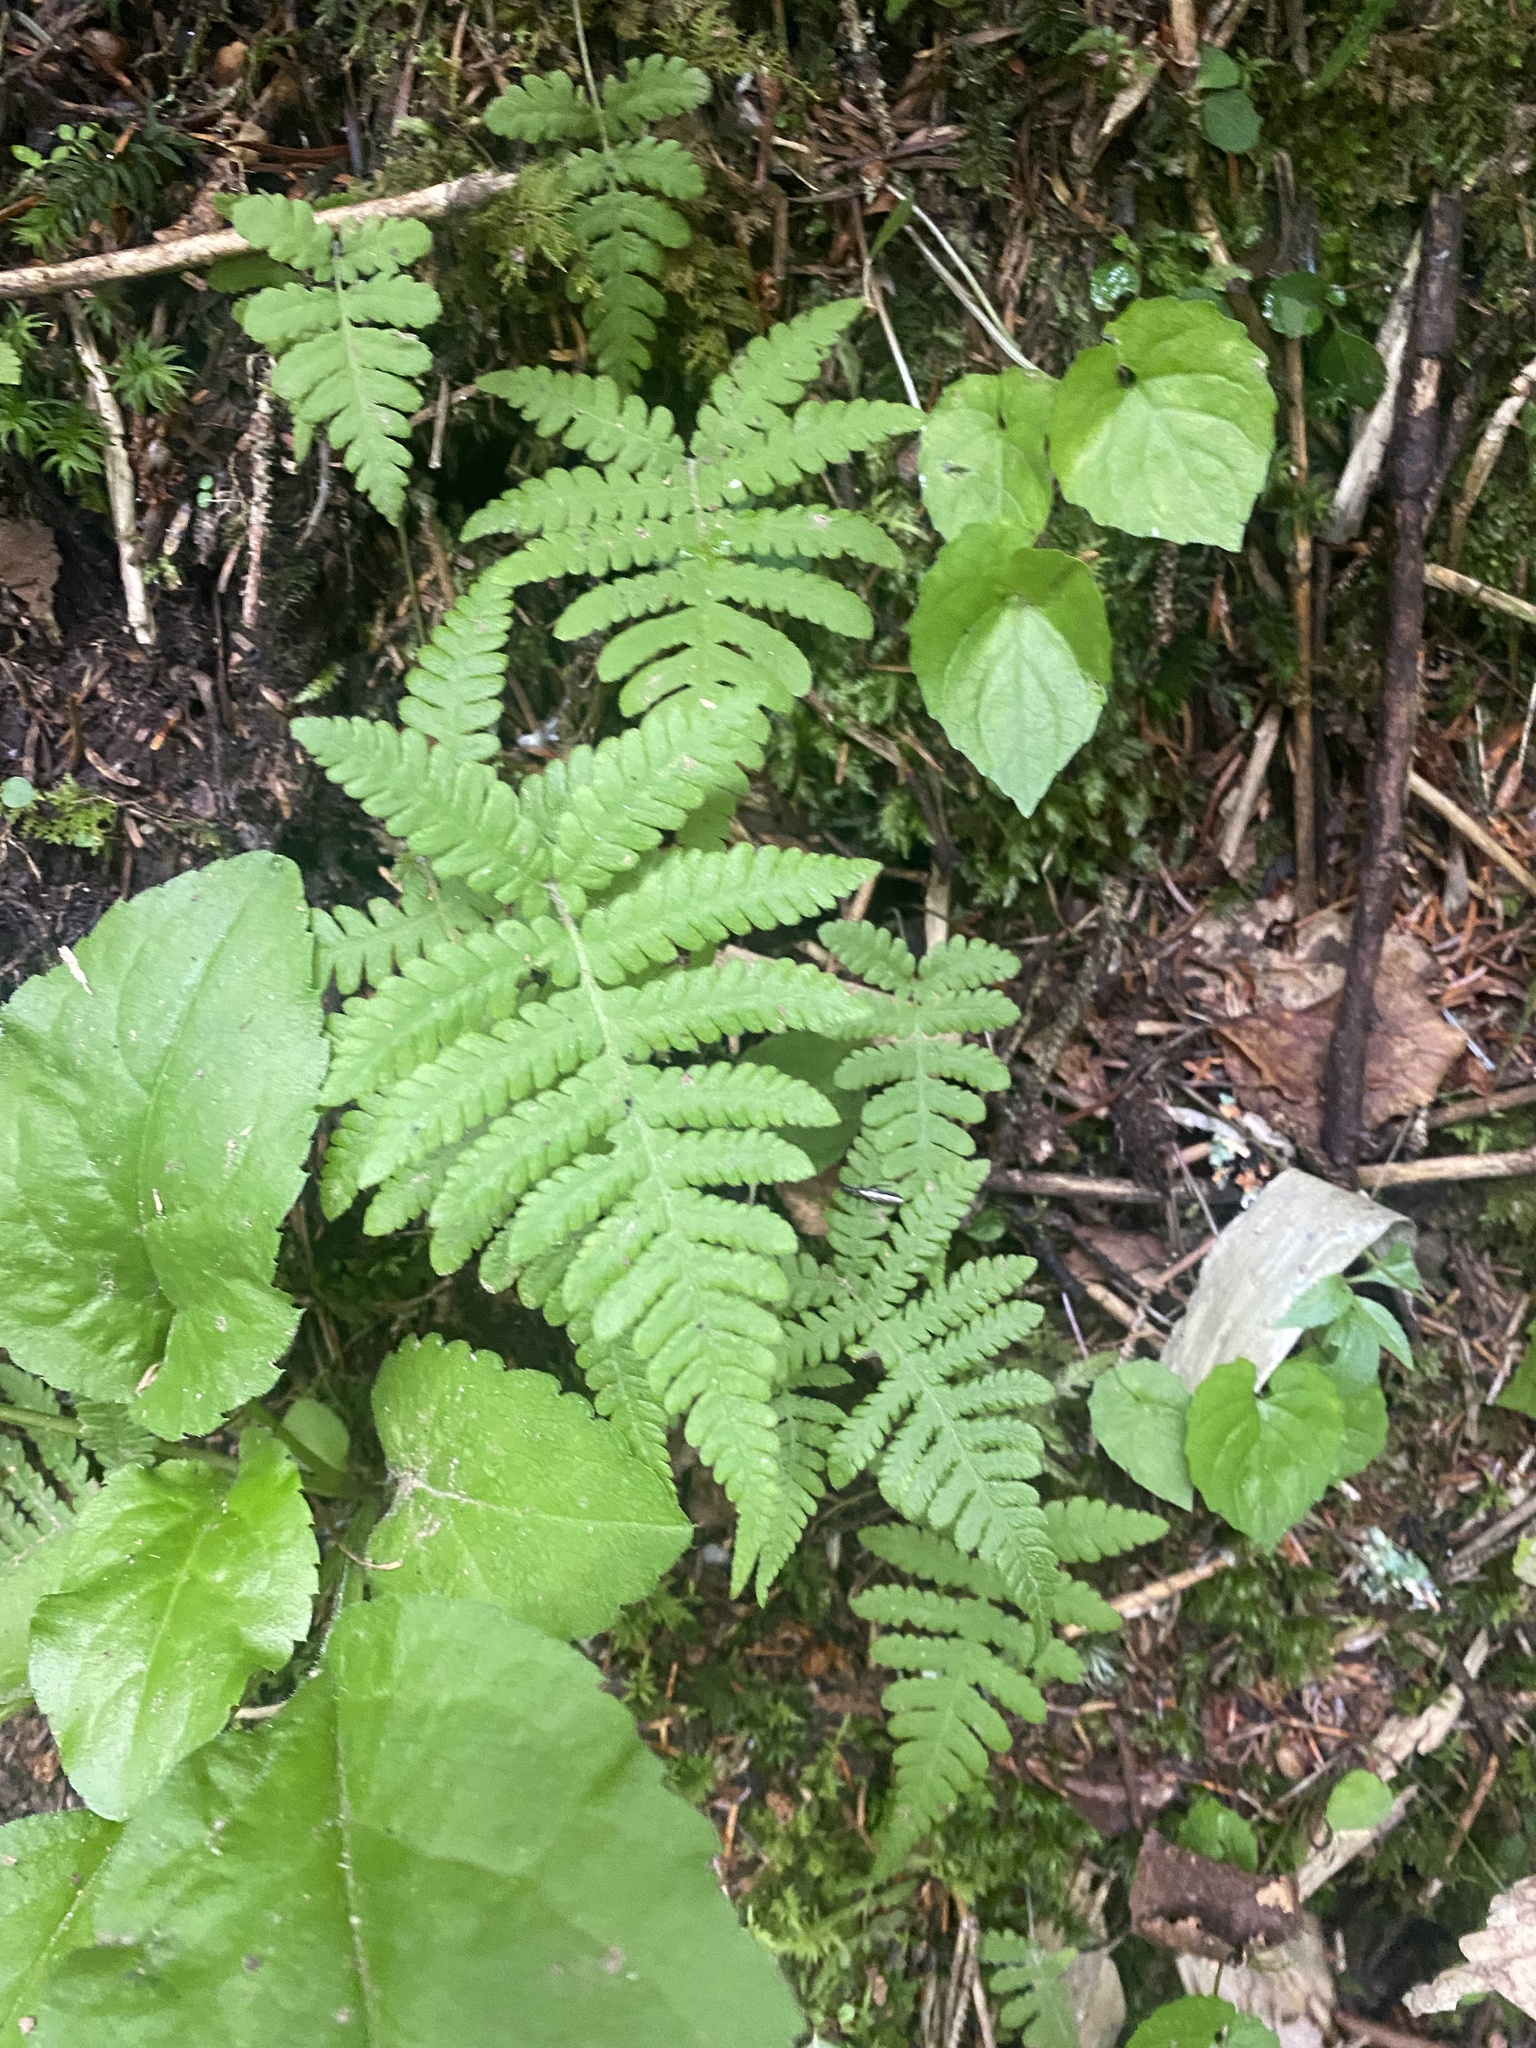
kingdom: Plantae
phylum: Tracheophyta
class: Polypodiopsida
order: Polypodiales
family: Thelypteridaceae
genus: Phegopteris
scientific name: Phegopteris connectilis
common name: Beech fern
